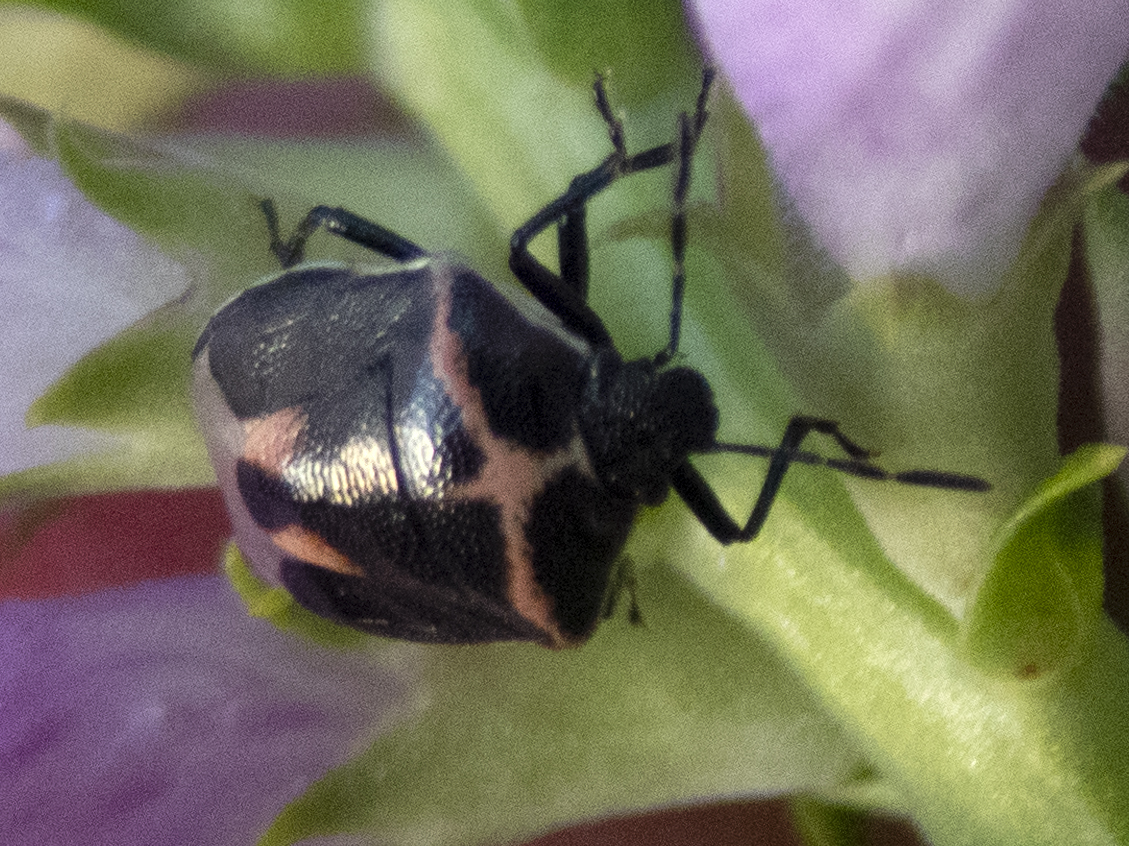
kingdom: Animalia
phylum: Arthropoda
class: Insecta
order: Hemiptera
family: Pentatomidae
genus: Cosmopepla
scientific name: Cosmopepla lintneriana
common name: Twice-stabbed stink bug
